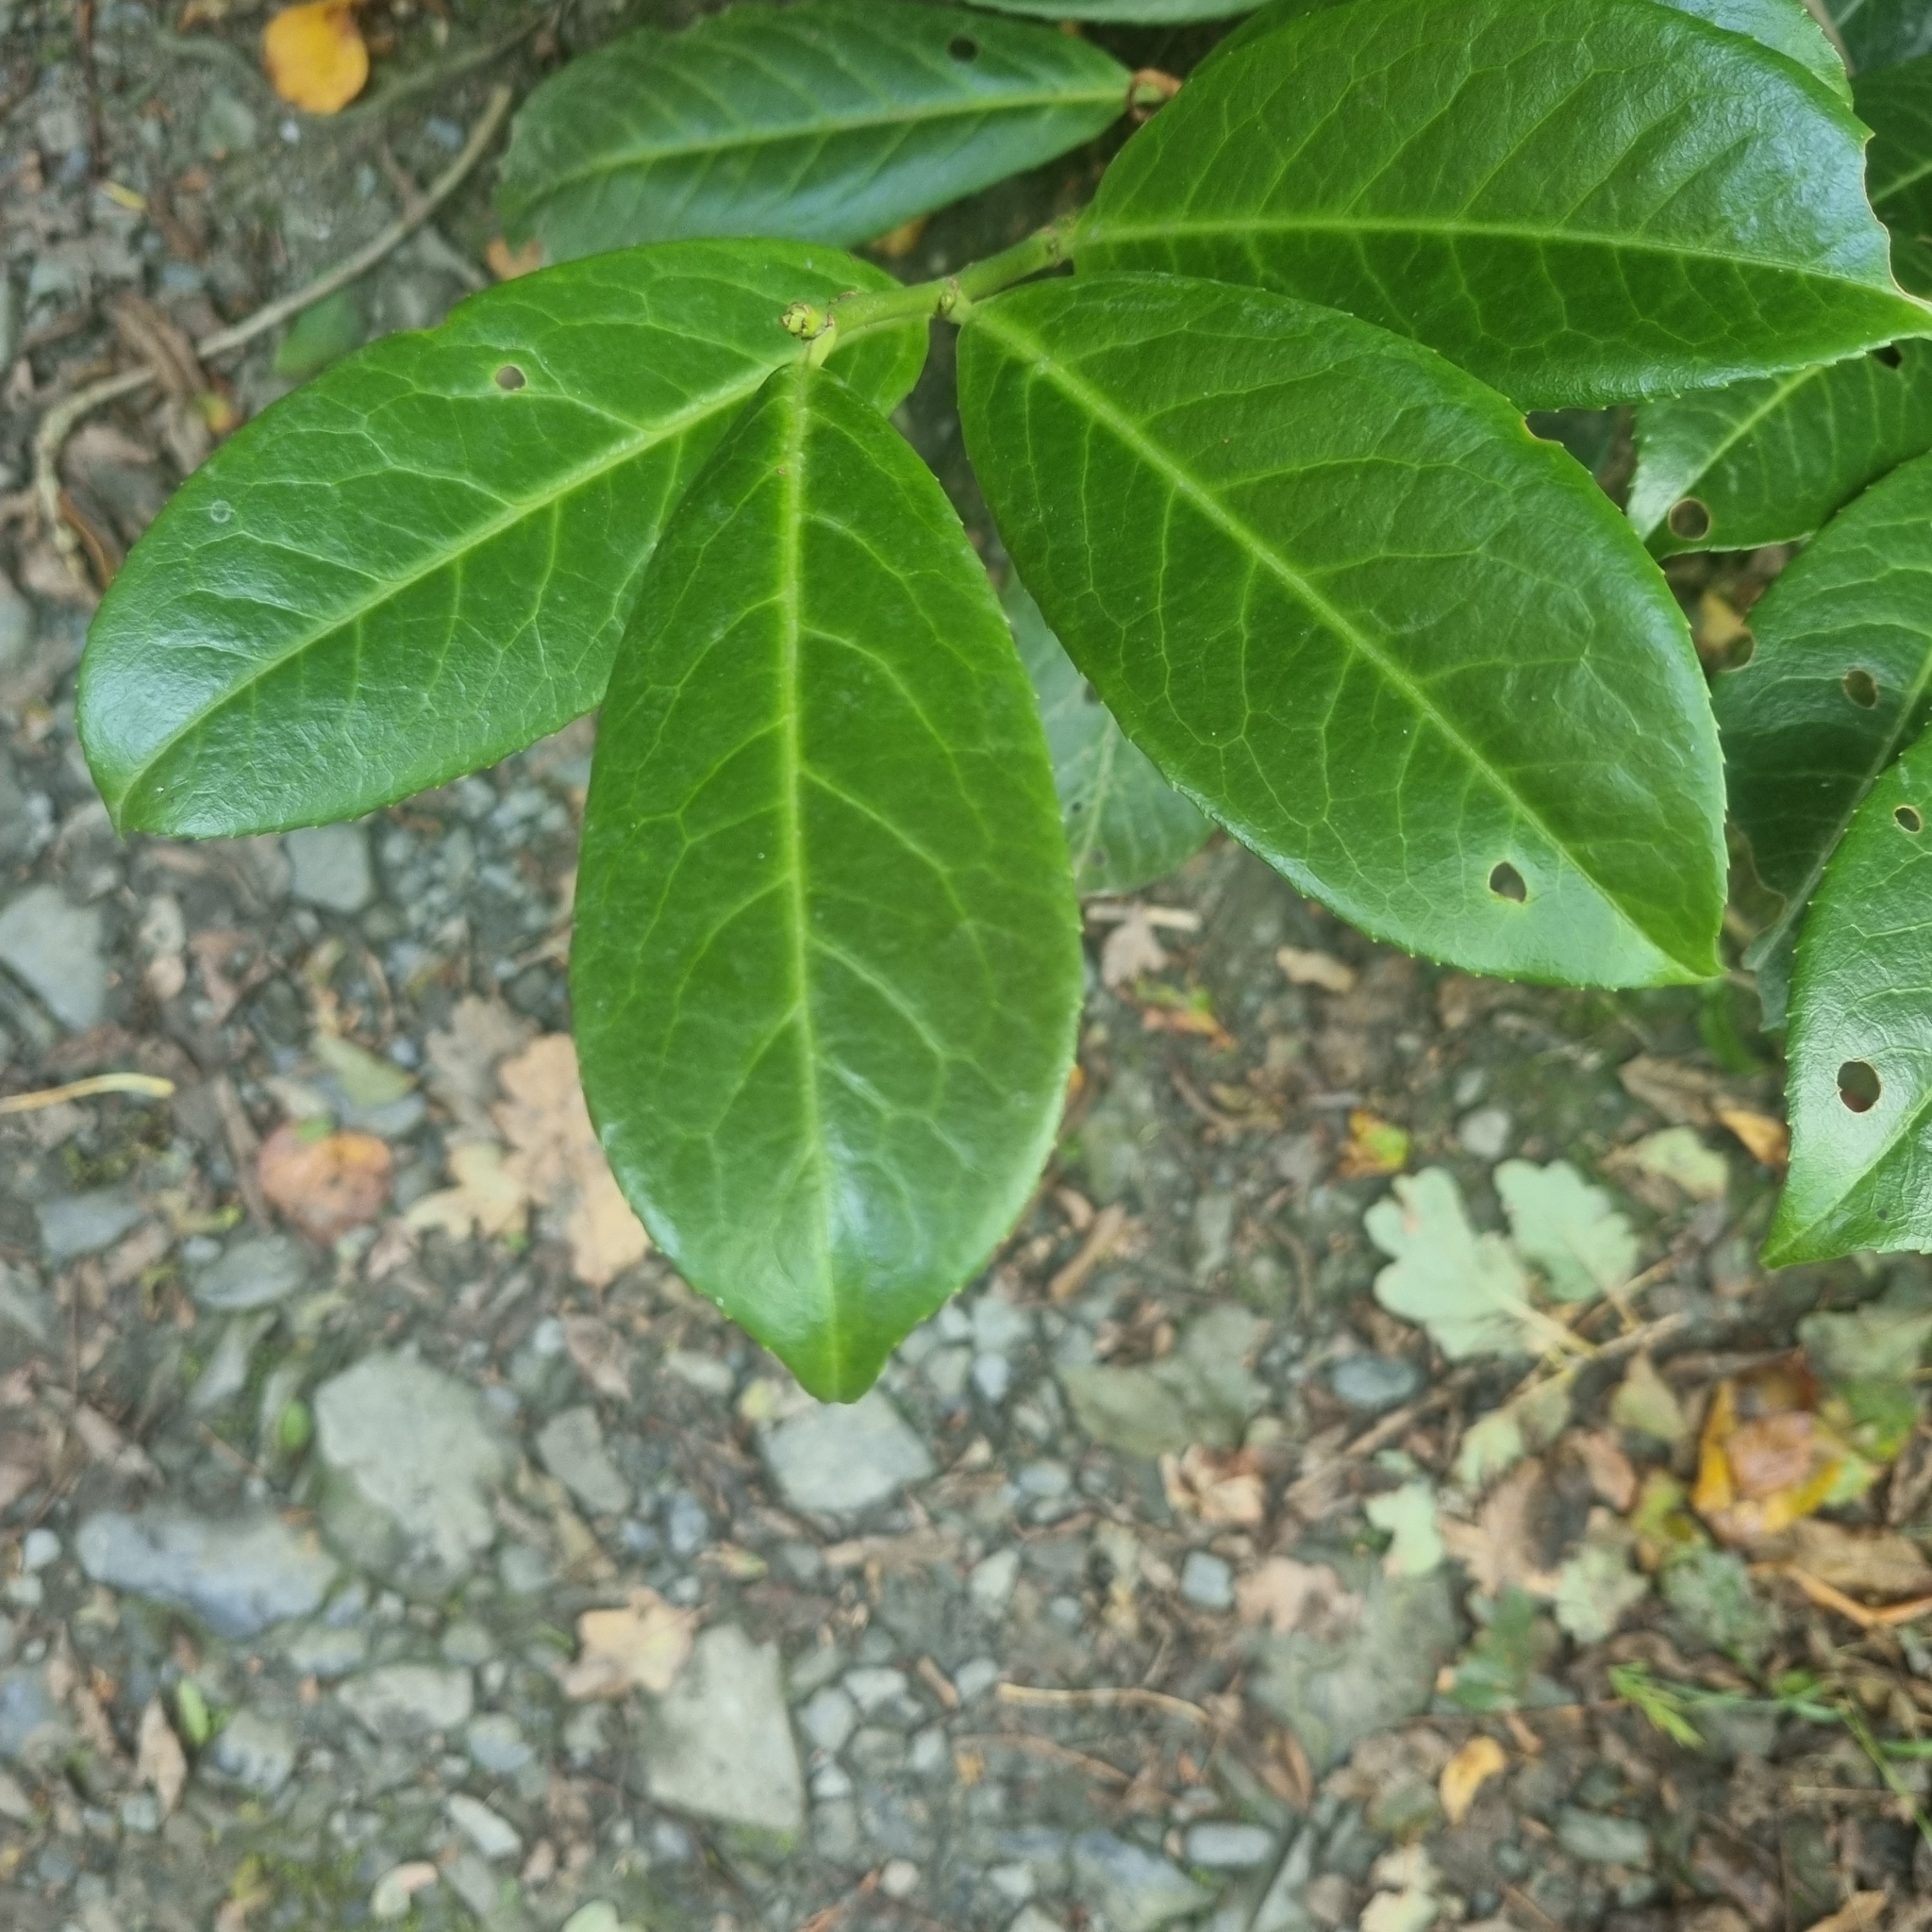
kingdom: Plantae
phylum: Tracheophyta
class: Magnoliopsida
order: Rosales
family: Rosaceae
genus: Prunus
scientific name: Prunus laurocerasus
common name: Cherry laurel
